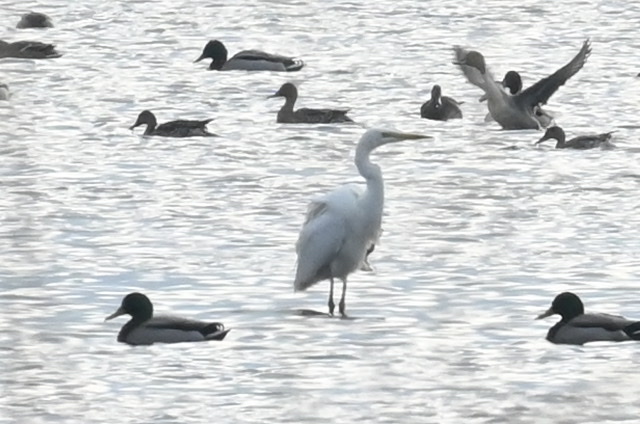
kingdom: Animalia
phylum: Chordata
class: Aves
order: Pelecaniformes
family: Ardeidae
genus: Ardea
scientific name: Ardea alba
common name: Great egret
